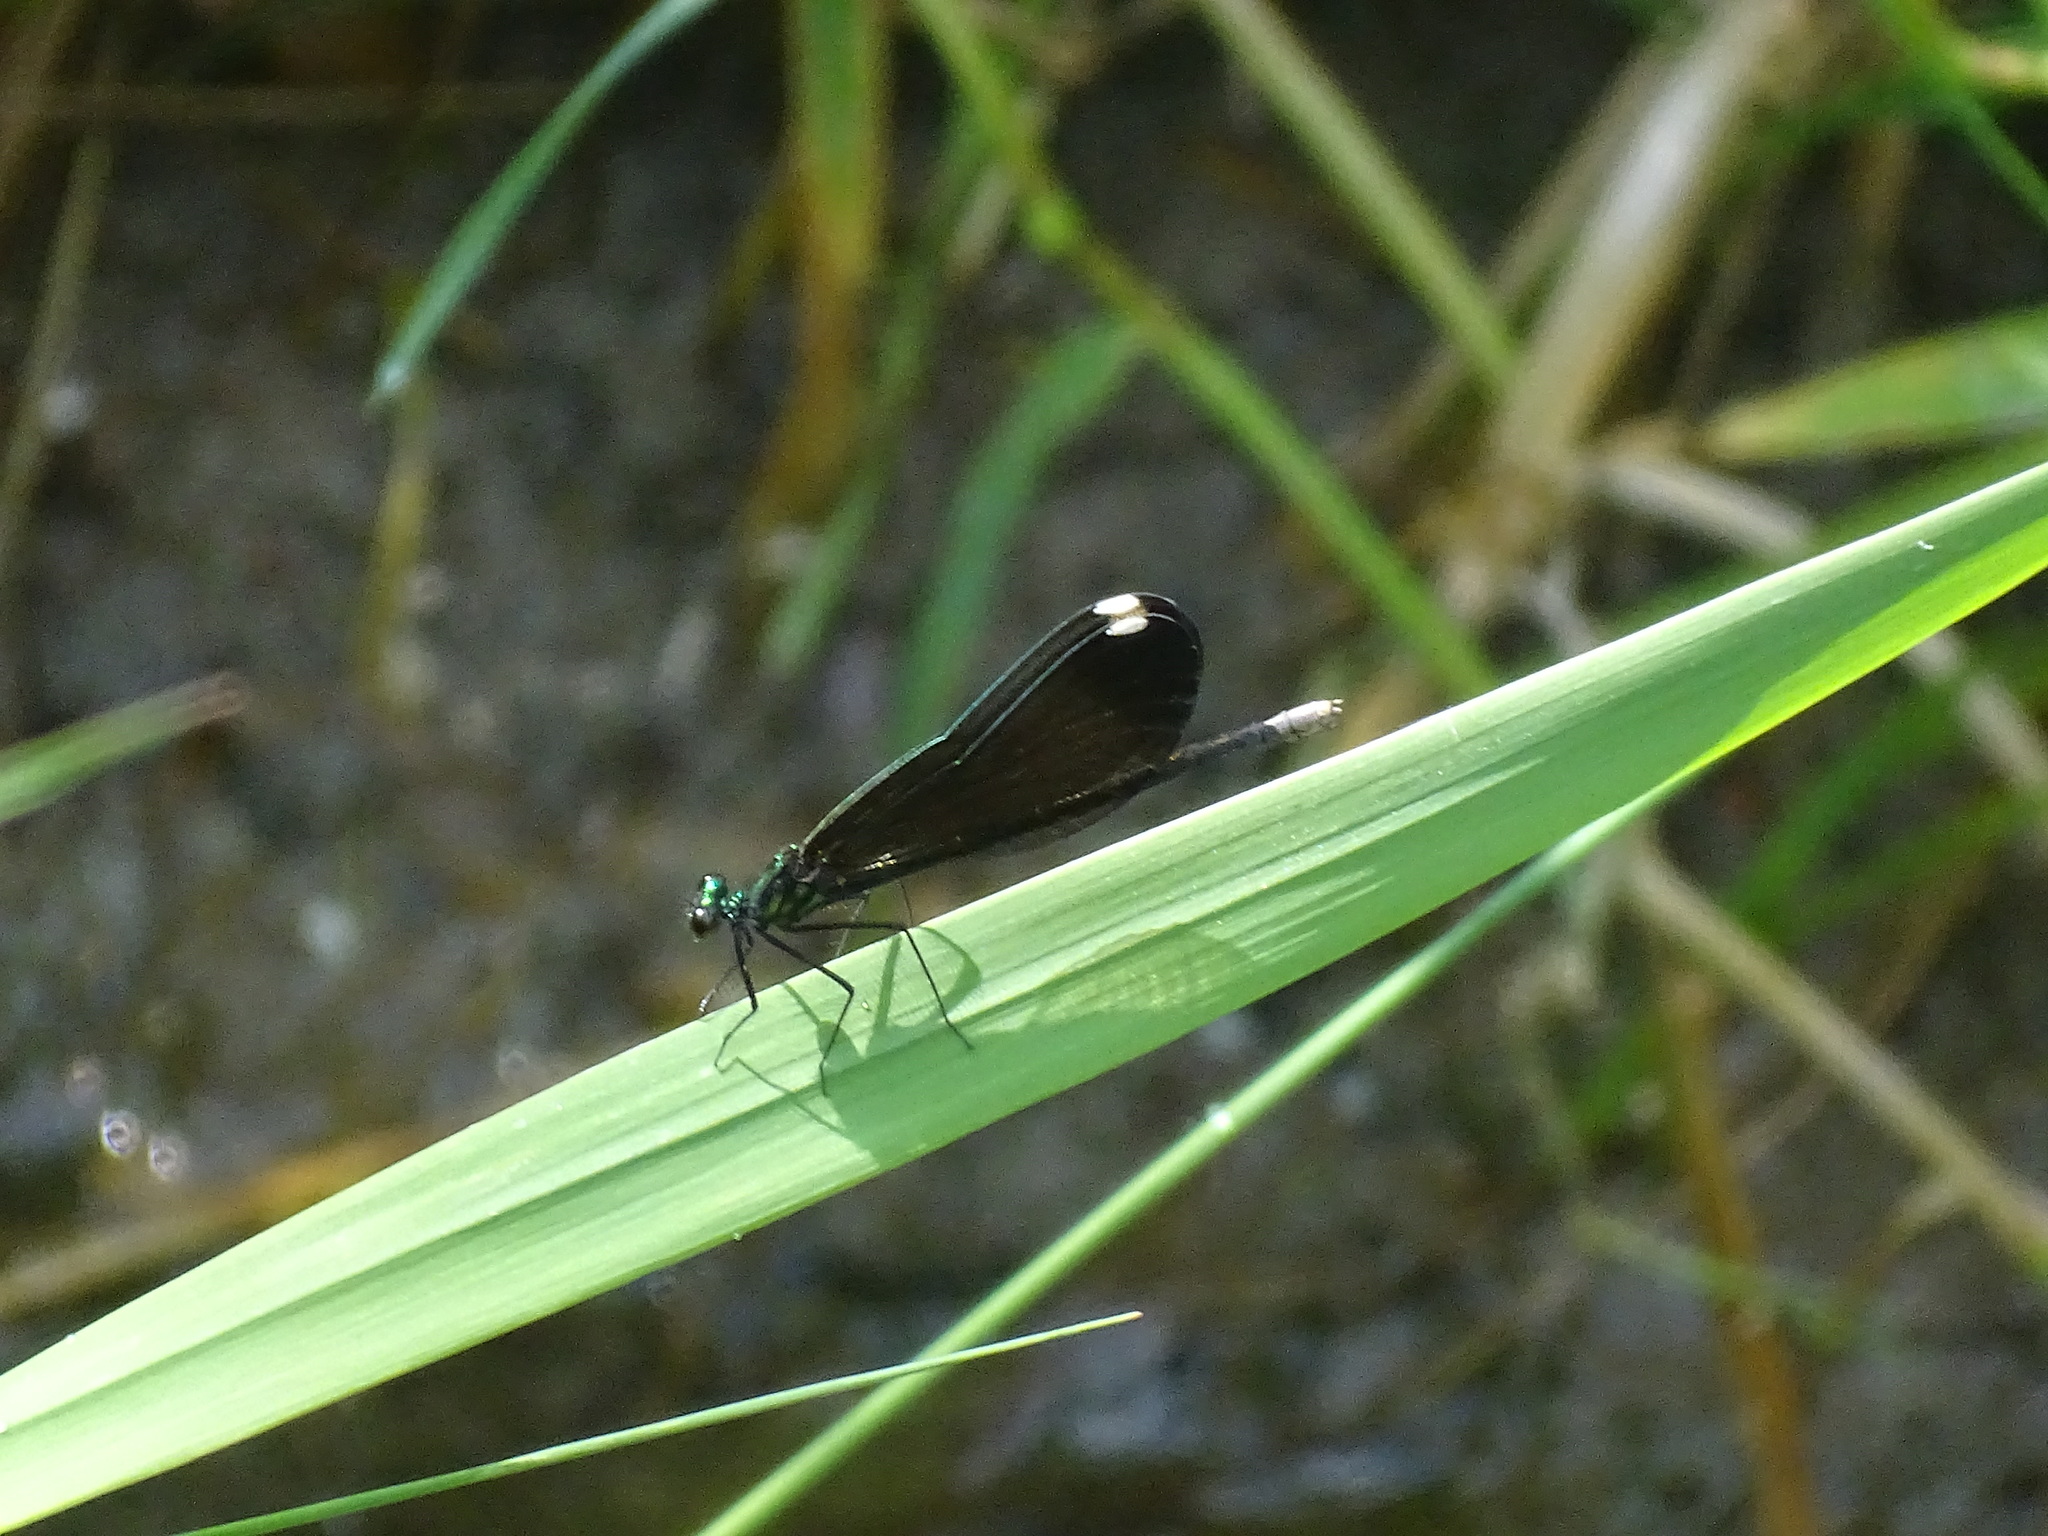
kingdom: Animalia
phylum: Arthropoda
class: Insecta
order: Odonata
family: Calopterygidae
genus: Calopteryx
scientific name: Calopteryx maculata
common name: Ebony jewelwing
